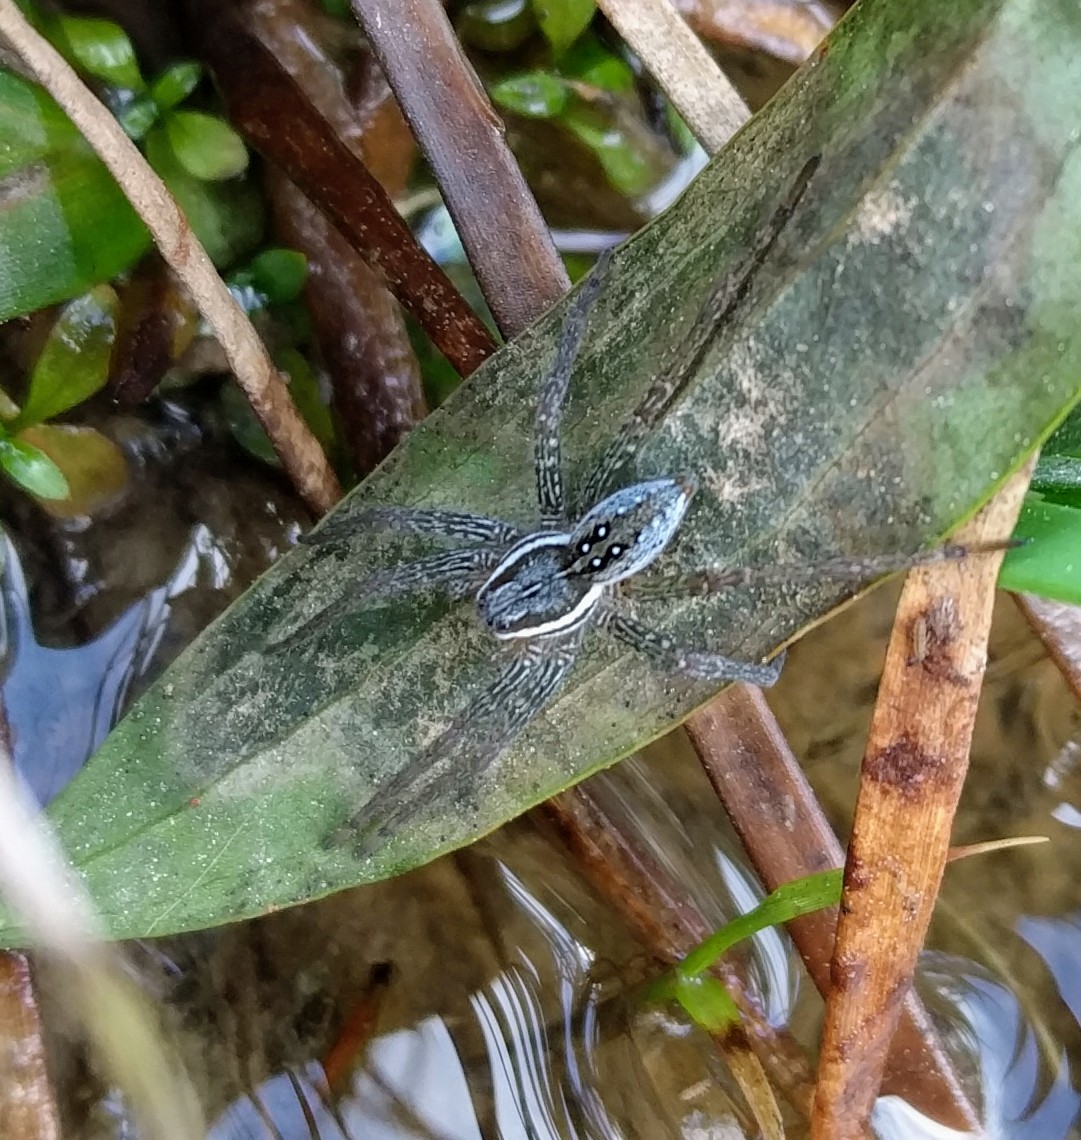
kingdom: Animalia
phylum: Arthropoda
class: Arachnida
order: Araneae
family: Pisauridae
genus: Dolomedes
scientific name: Dolomedes triton
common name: Six-spotted fishing spider
